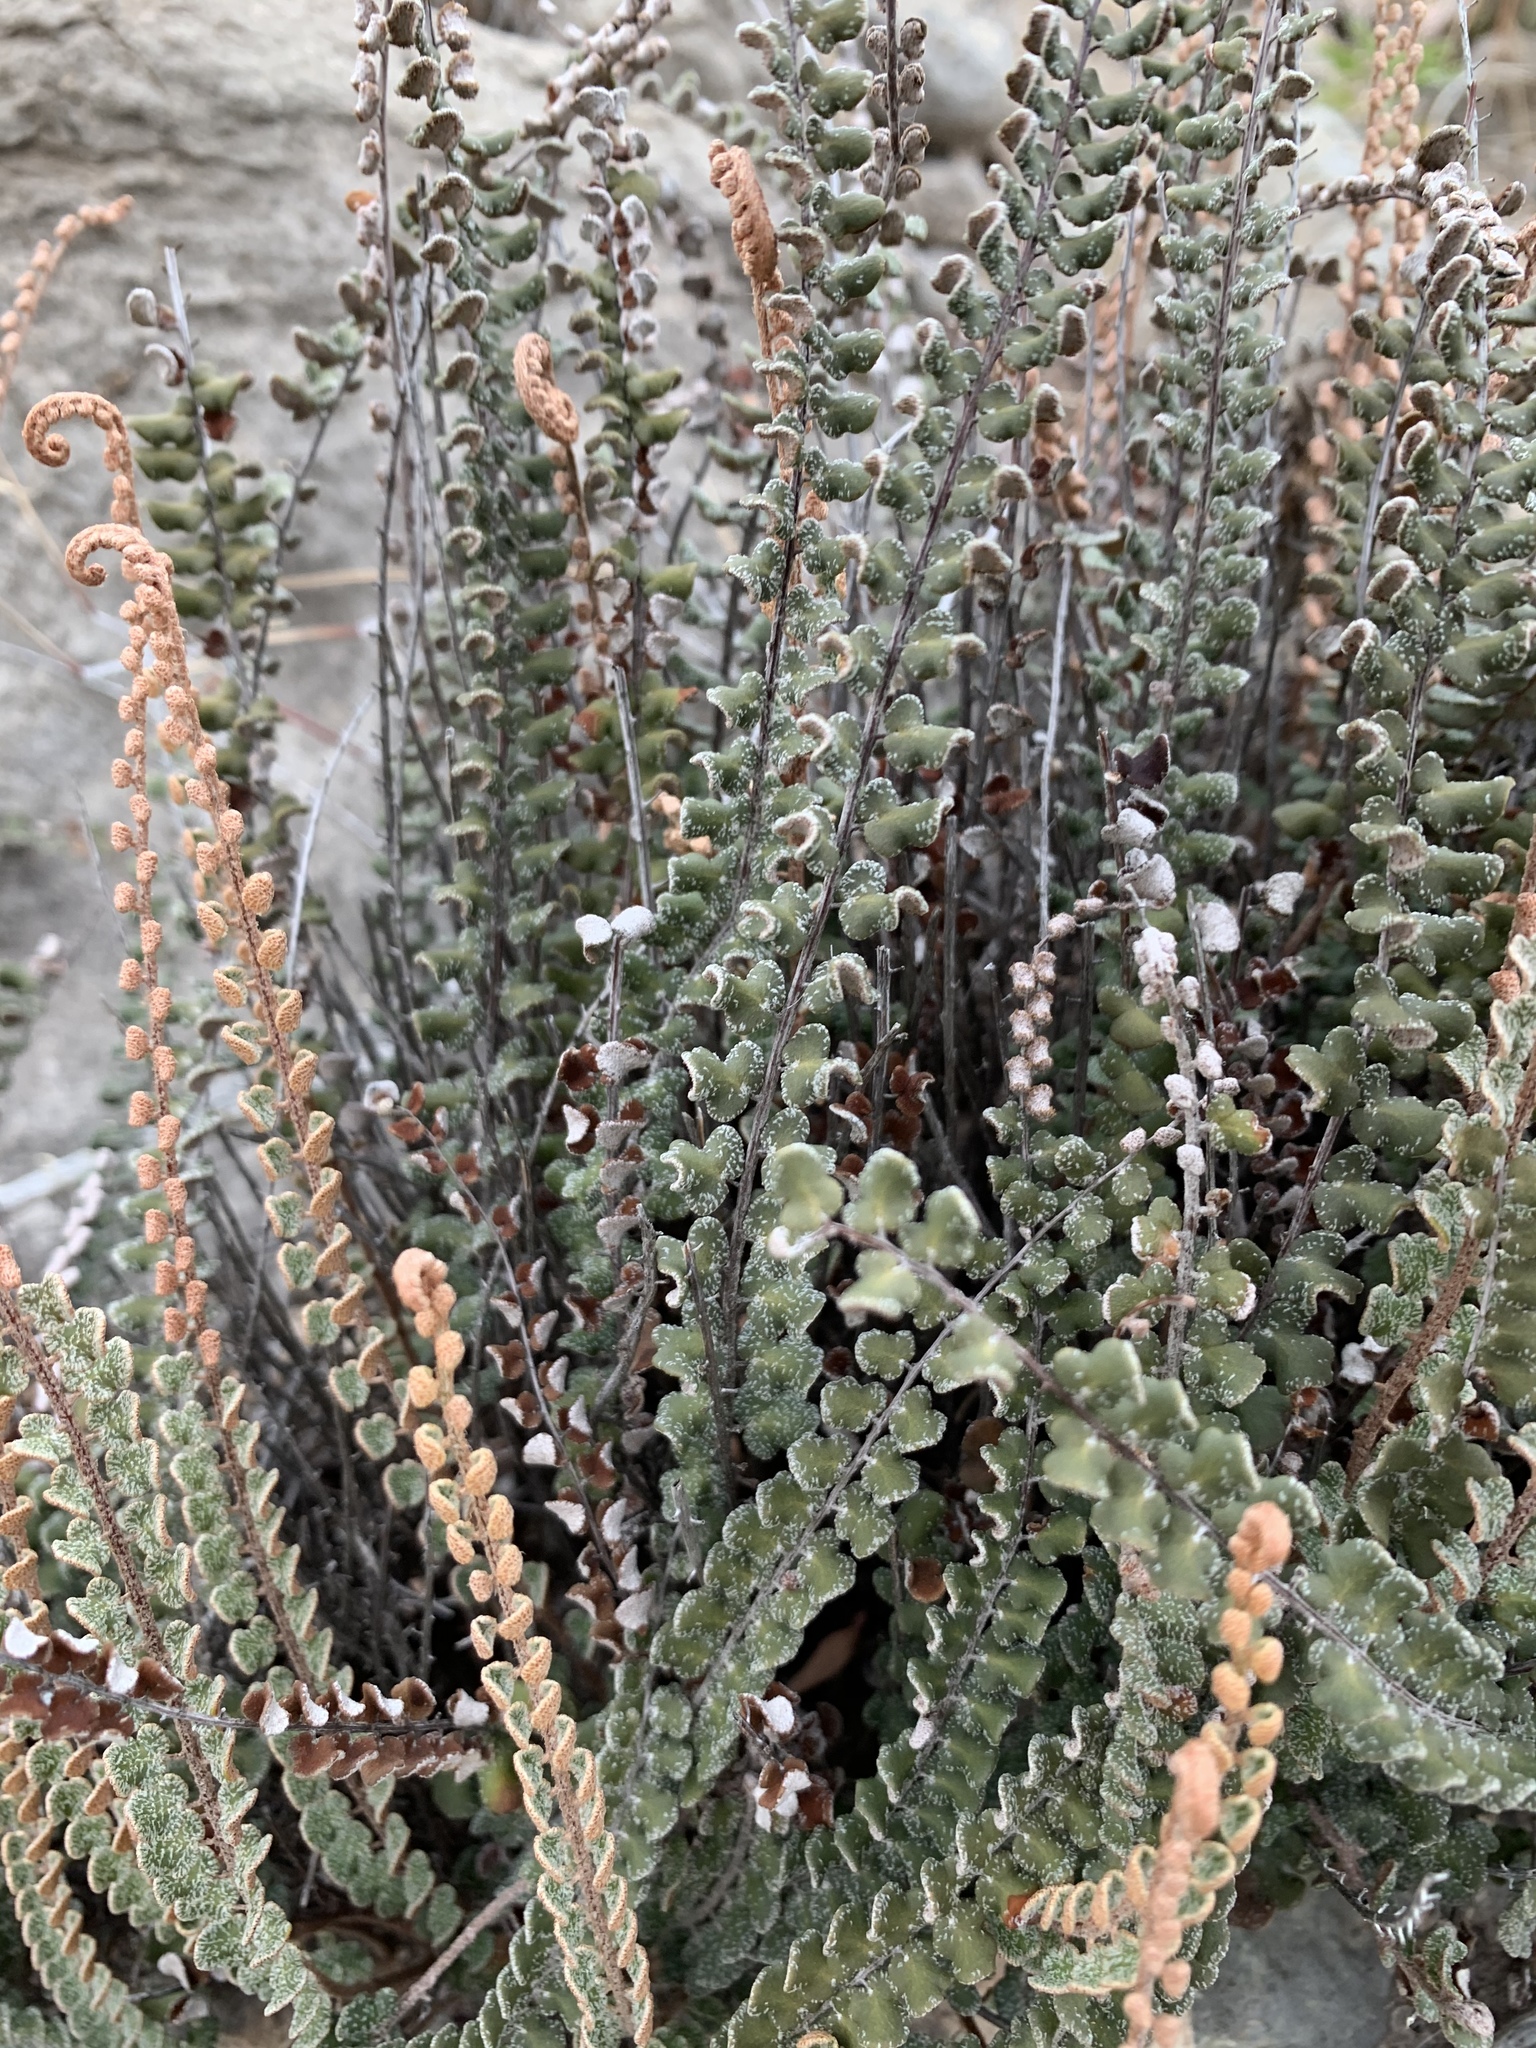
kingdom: Plantae
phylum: Tracheophyta
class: Polypodiopsida
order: Polypodiales
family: Pteridaceae
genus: Astrolepis
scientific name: Astrolepis cochisensis
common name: Scaly cloak fern
